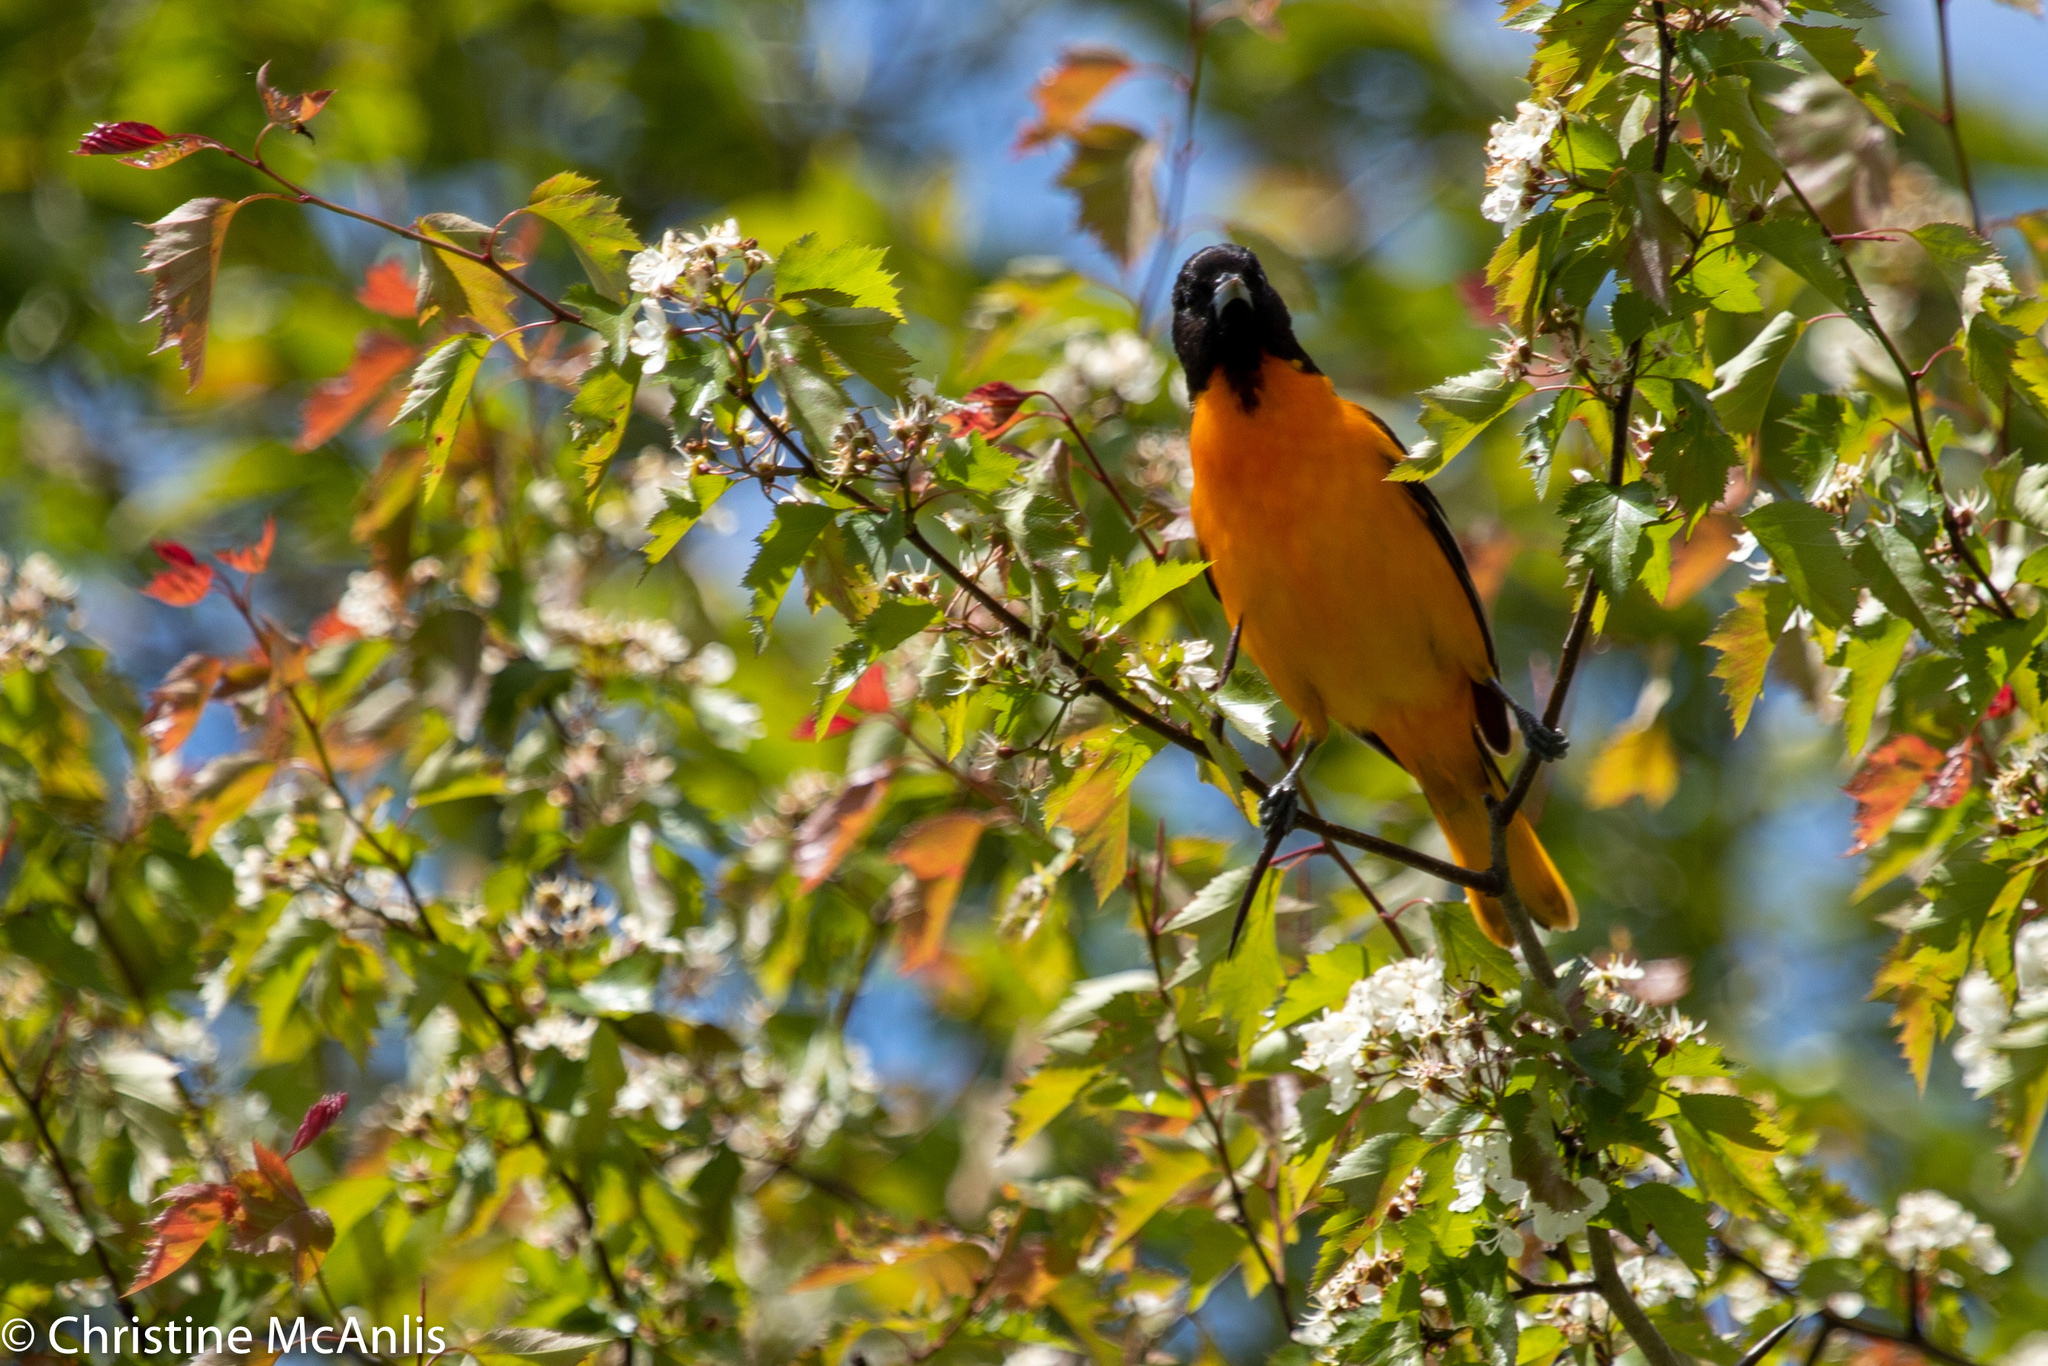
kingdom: Animalia
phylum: Chordata
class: Aves
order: Passeriformes
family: Icteridae
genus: Icterus
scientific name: Icterus galbula
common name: Baltimore oriole
